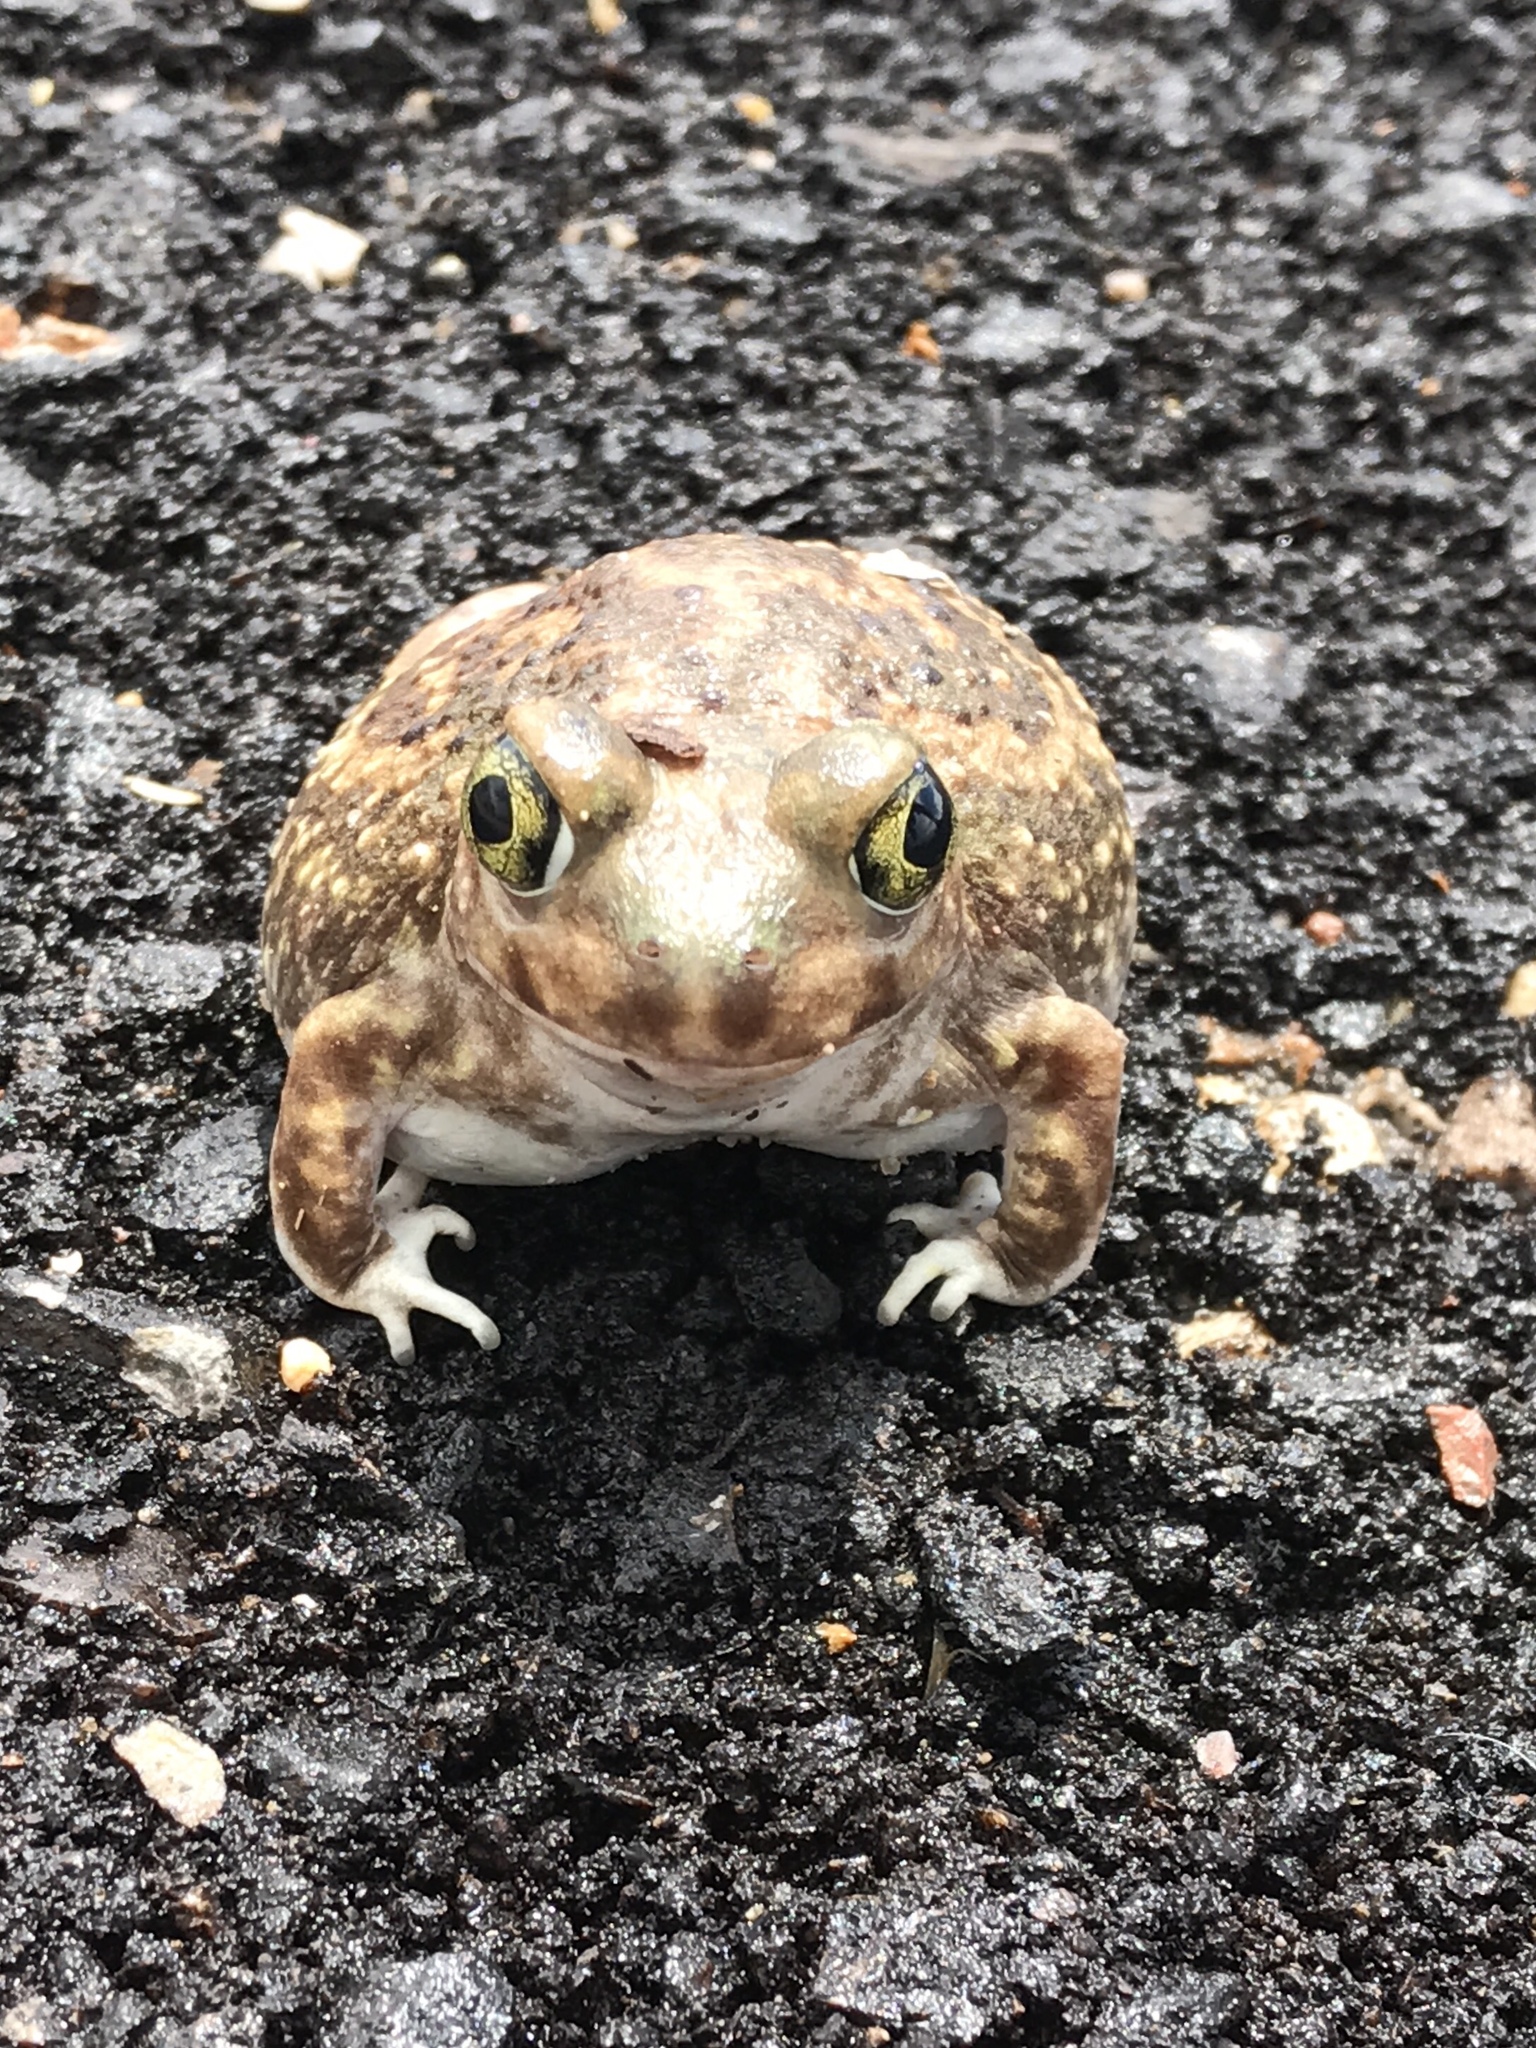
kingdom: Animalia
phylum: Chordata
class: Amphibia
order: Anura
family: Scaphiopodidae
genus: Scaphiopus
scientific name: Scaphiopus couchii
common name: Couch's spadefoot toad
